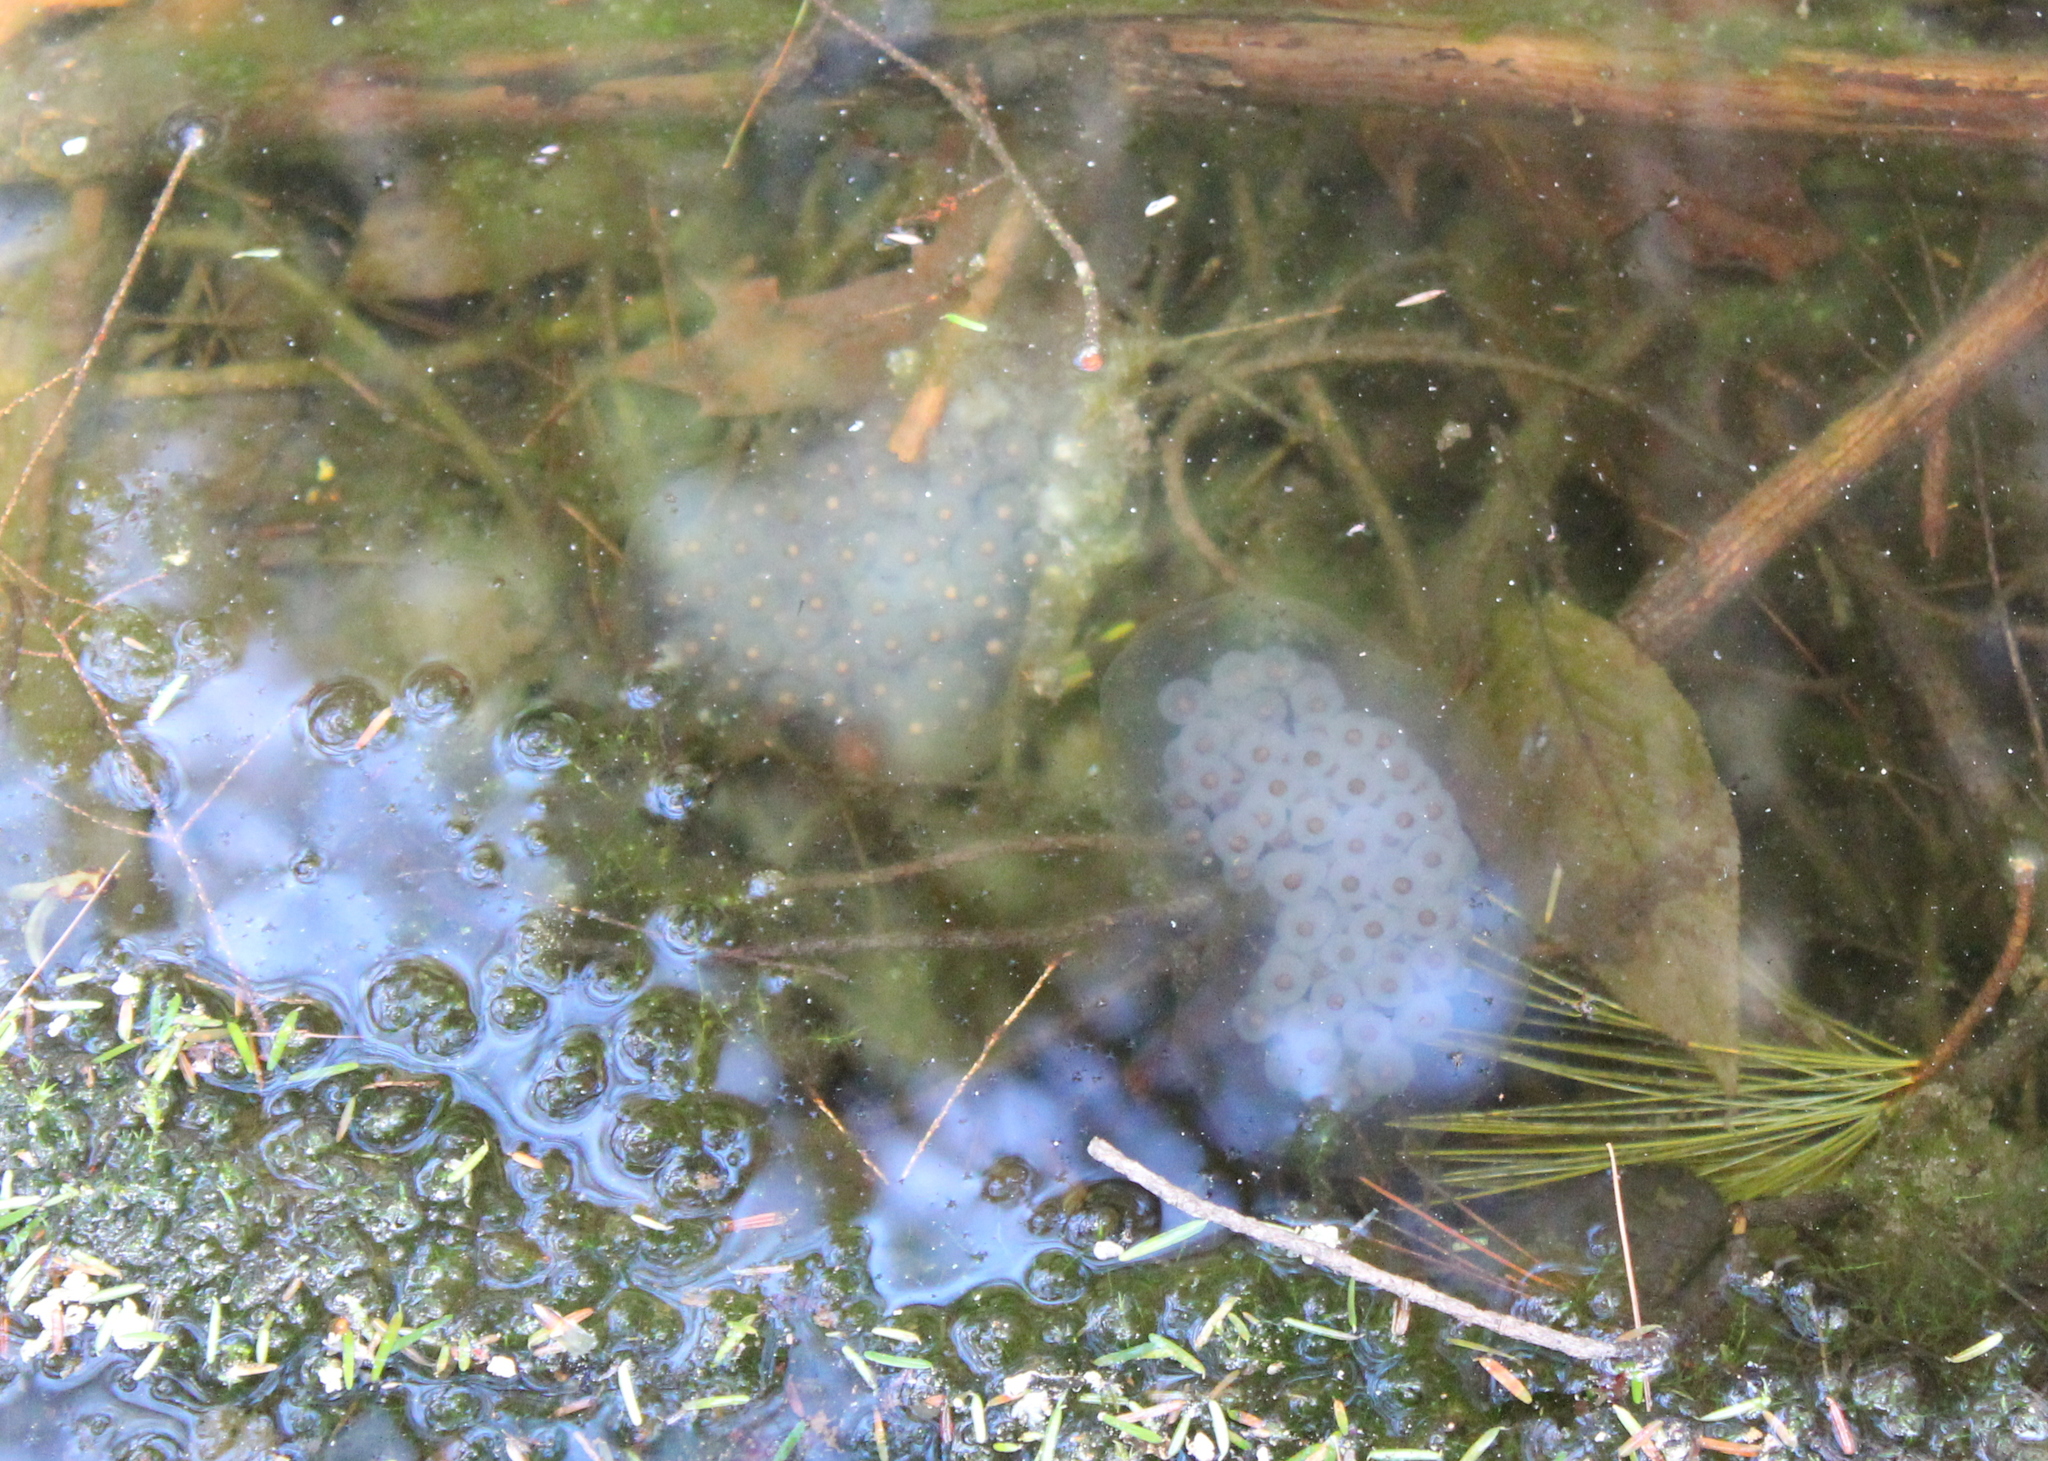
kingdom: Animalia
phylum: Chordata
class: Amphibia
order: Caudata
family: Ambystomatidae
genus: Ambystoma
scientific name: Ambystoma maculatum
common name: Spotted salamander
